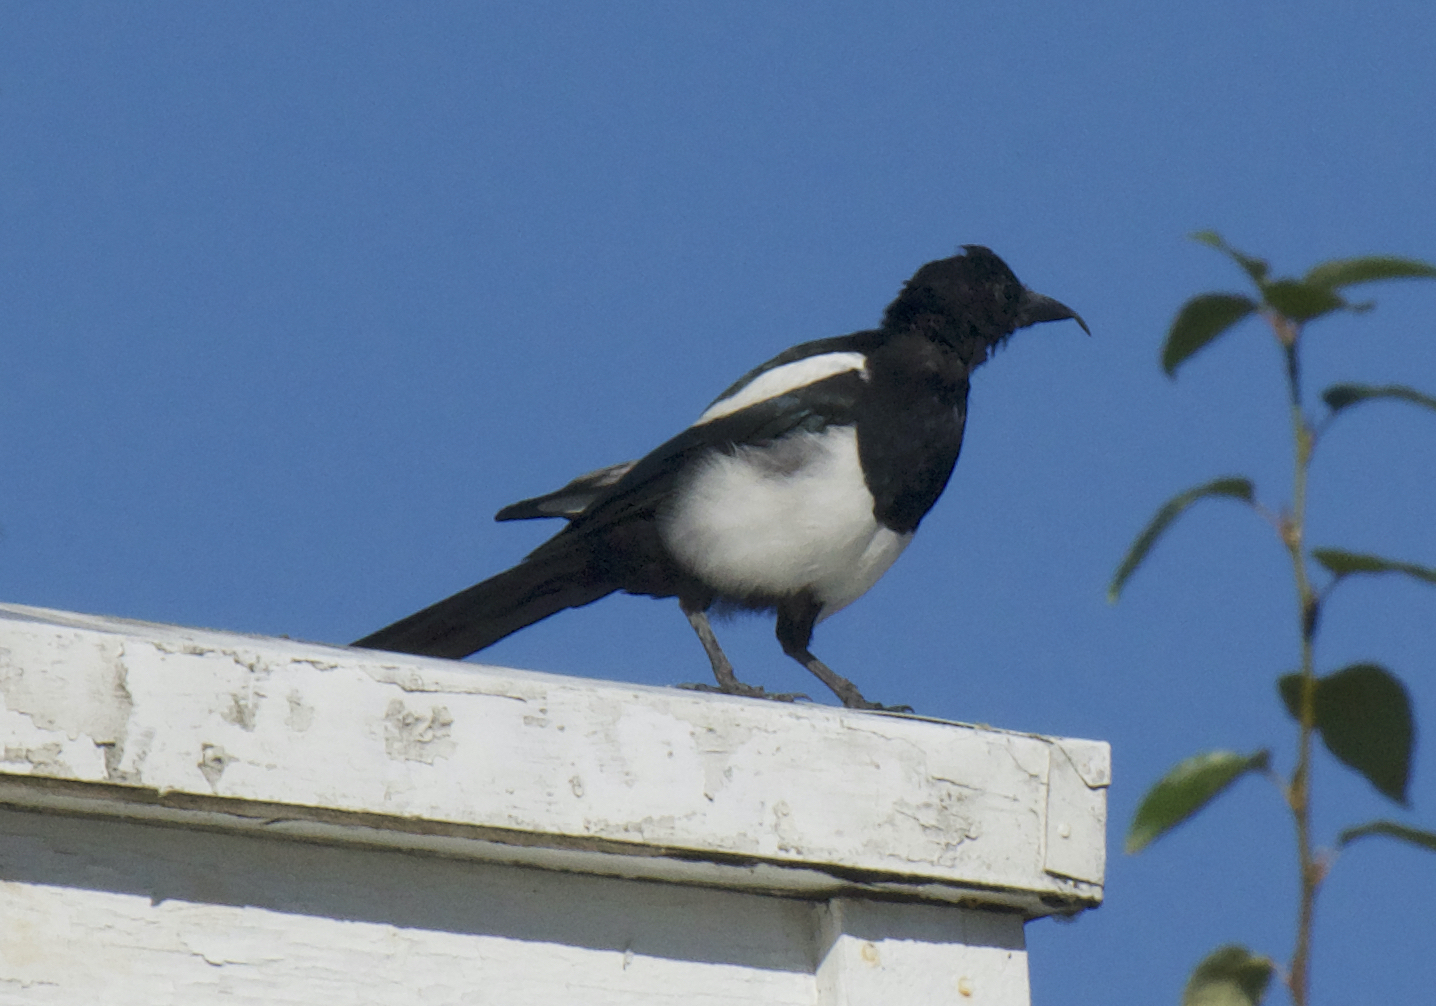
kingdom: Animalia
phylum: Chordata
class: Aves
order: Passeriformes
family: Corvidae
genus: Pica
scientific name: Pica hudsonia
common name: Black-billed magpie
